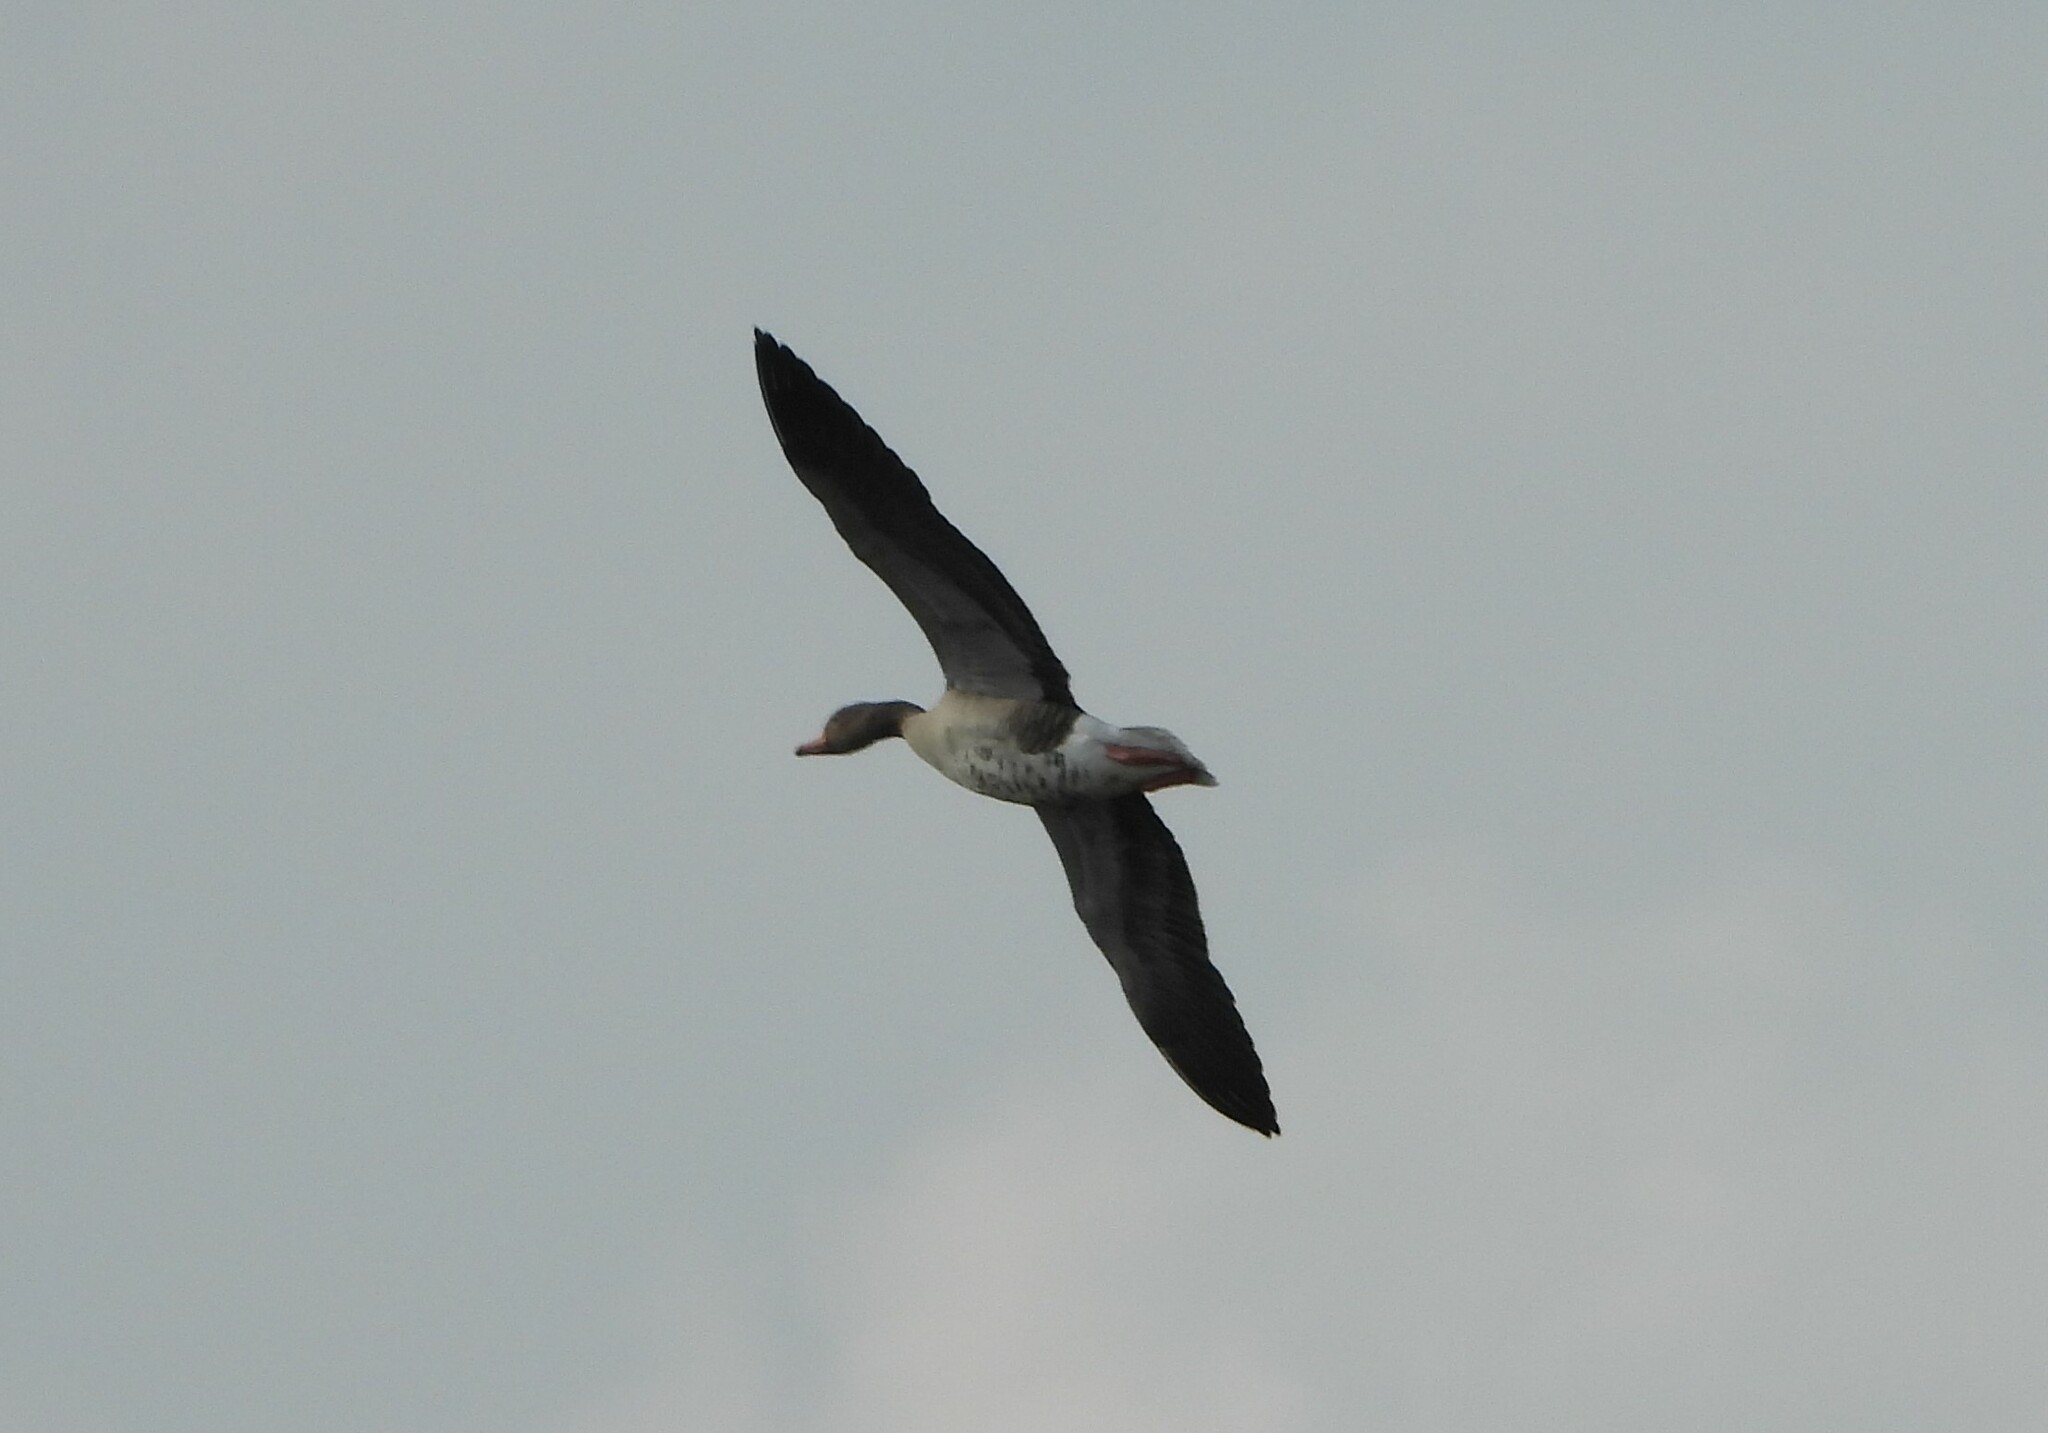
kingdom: Animalia
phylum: Chordata
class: Aves
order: Anseriformes
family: Anatidae
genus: Anser
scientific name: Anser anser
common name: Greylag goose
